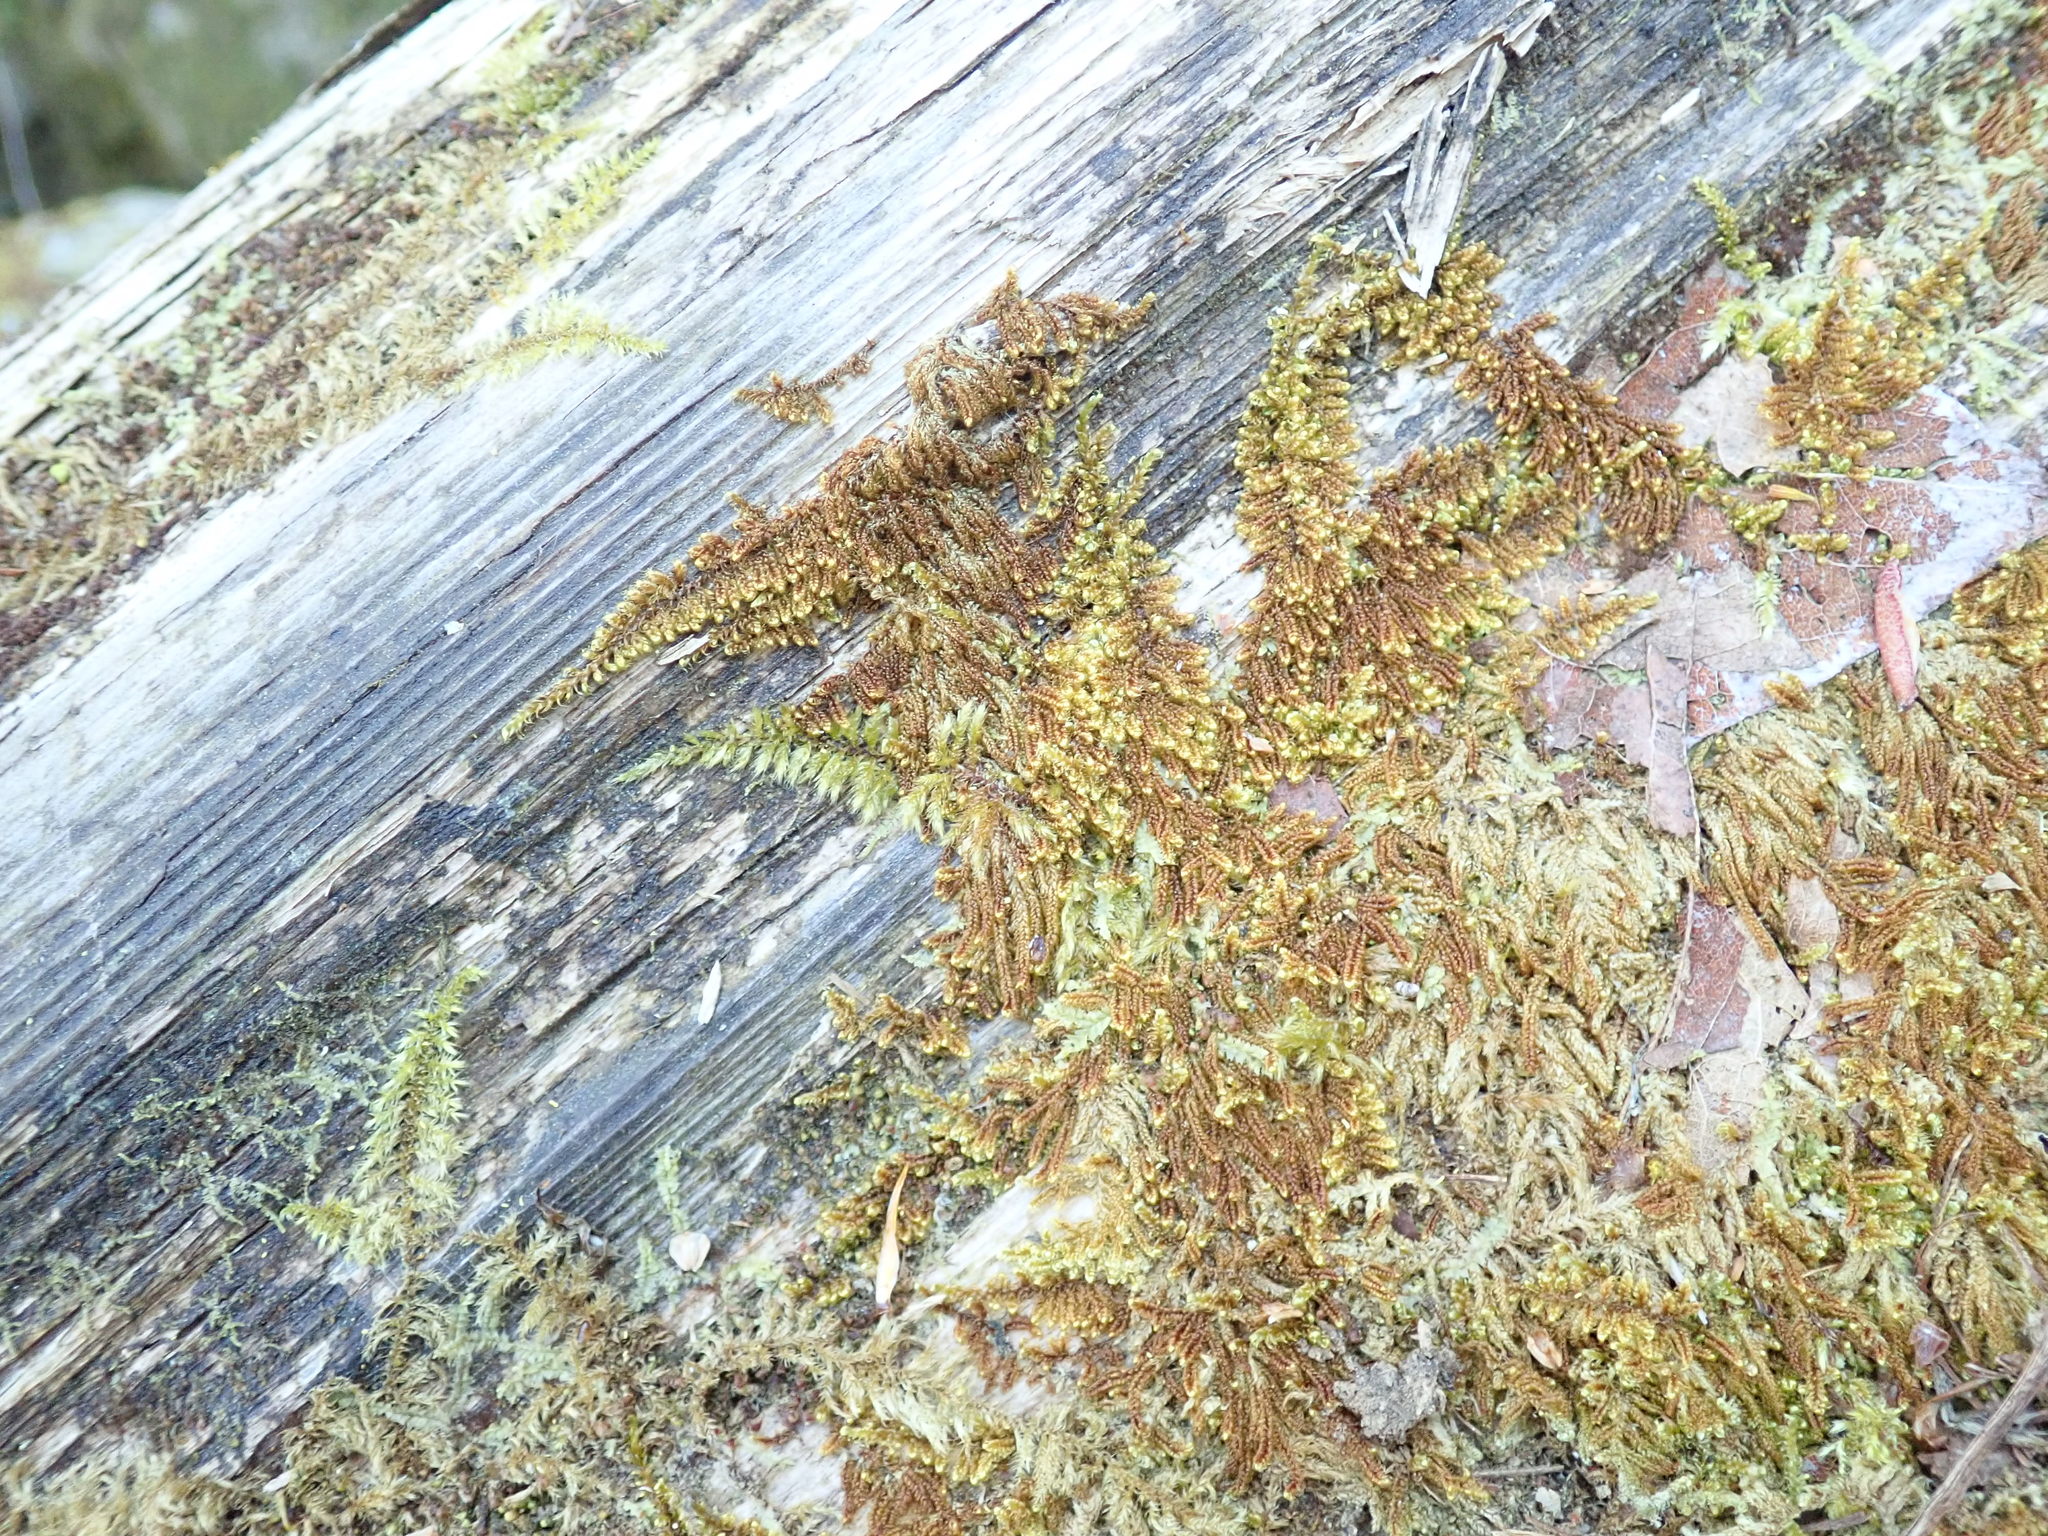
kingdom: Plantae
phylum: Bryophyta
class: Bryopsida
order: Hypnales
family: Pylaisiaceae
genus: Calliergonellopsis
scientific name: Calliergonellopsis dieckii
